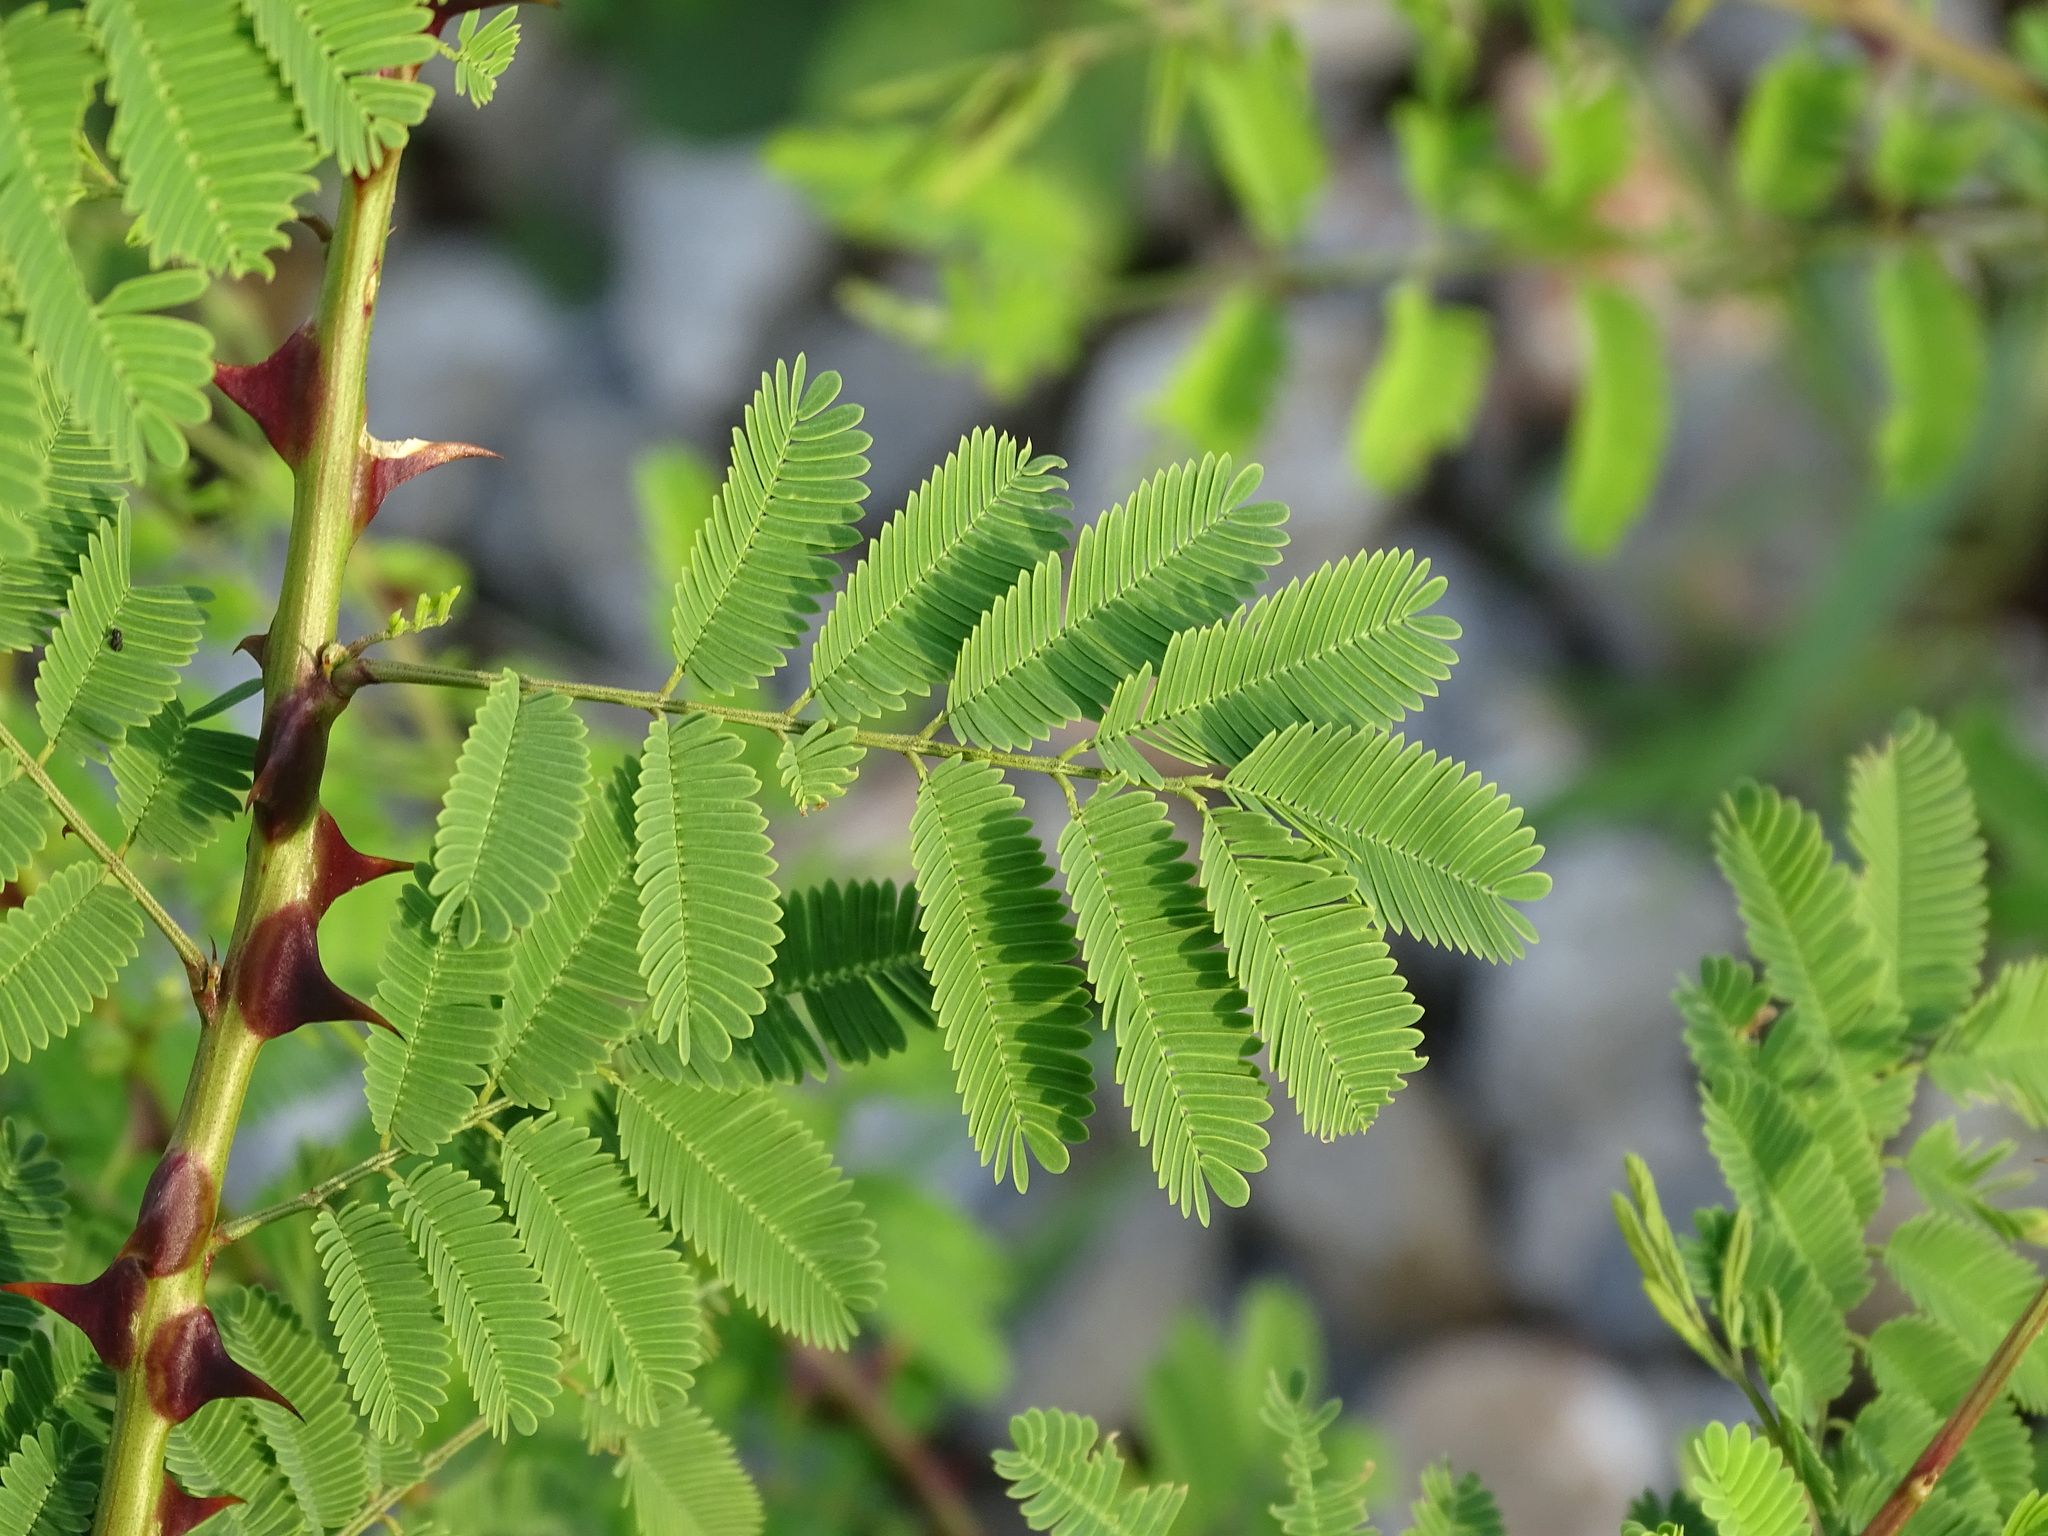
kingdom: Plantae
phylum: Tracheophyta
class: Magnoliopsida
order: Fabales
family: Fabaceae
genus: Mimosa
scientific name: Mimosa acantholoba
